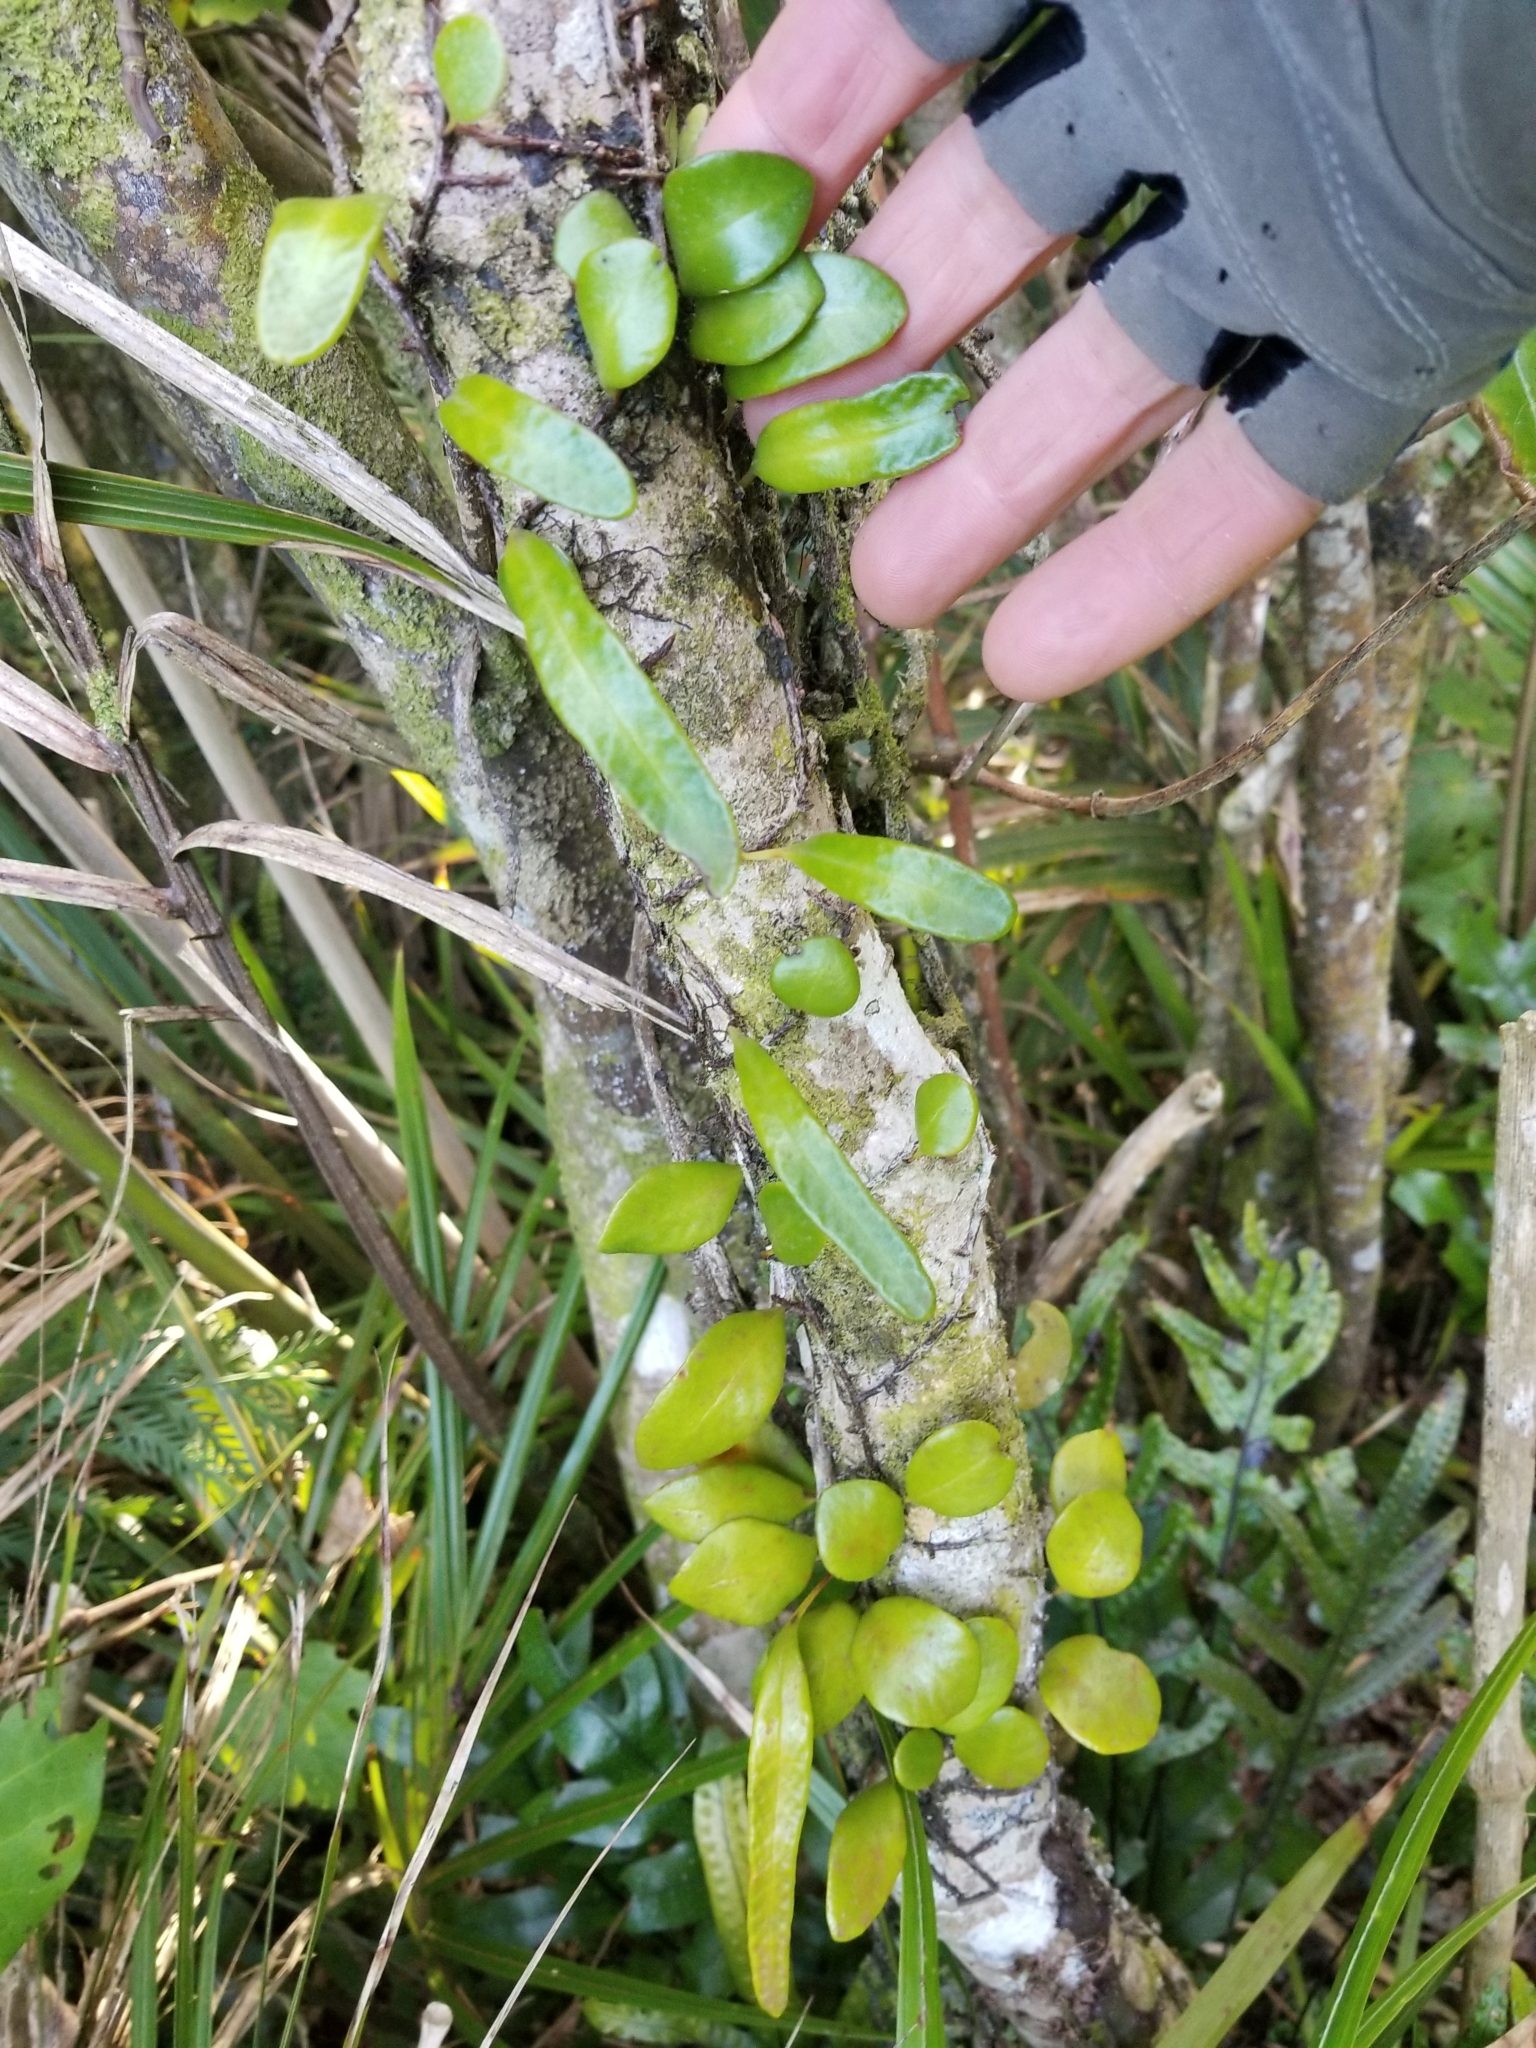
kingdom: Plantae
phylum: Tracheophyta
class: Polypodiopsida
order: Polypodiales
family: Polypodiaceae
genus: Pyrrosia
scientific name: Pyrrosia eleagnifolia
